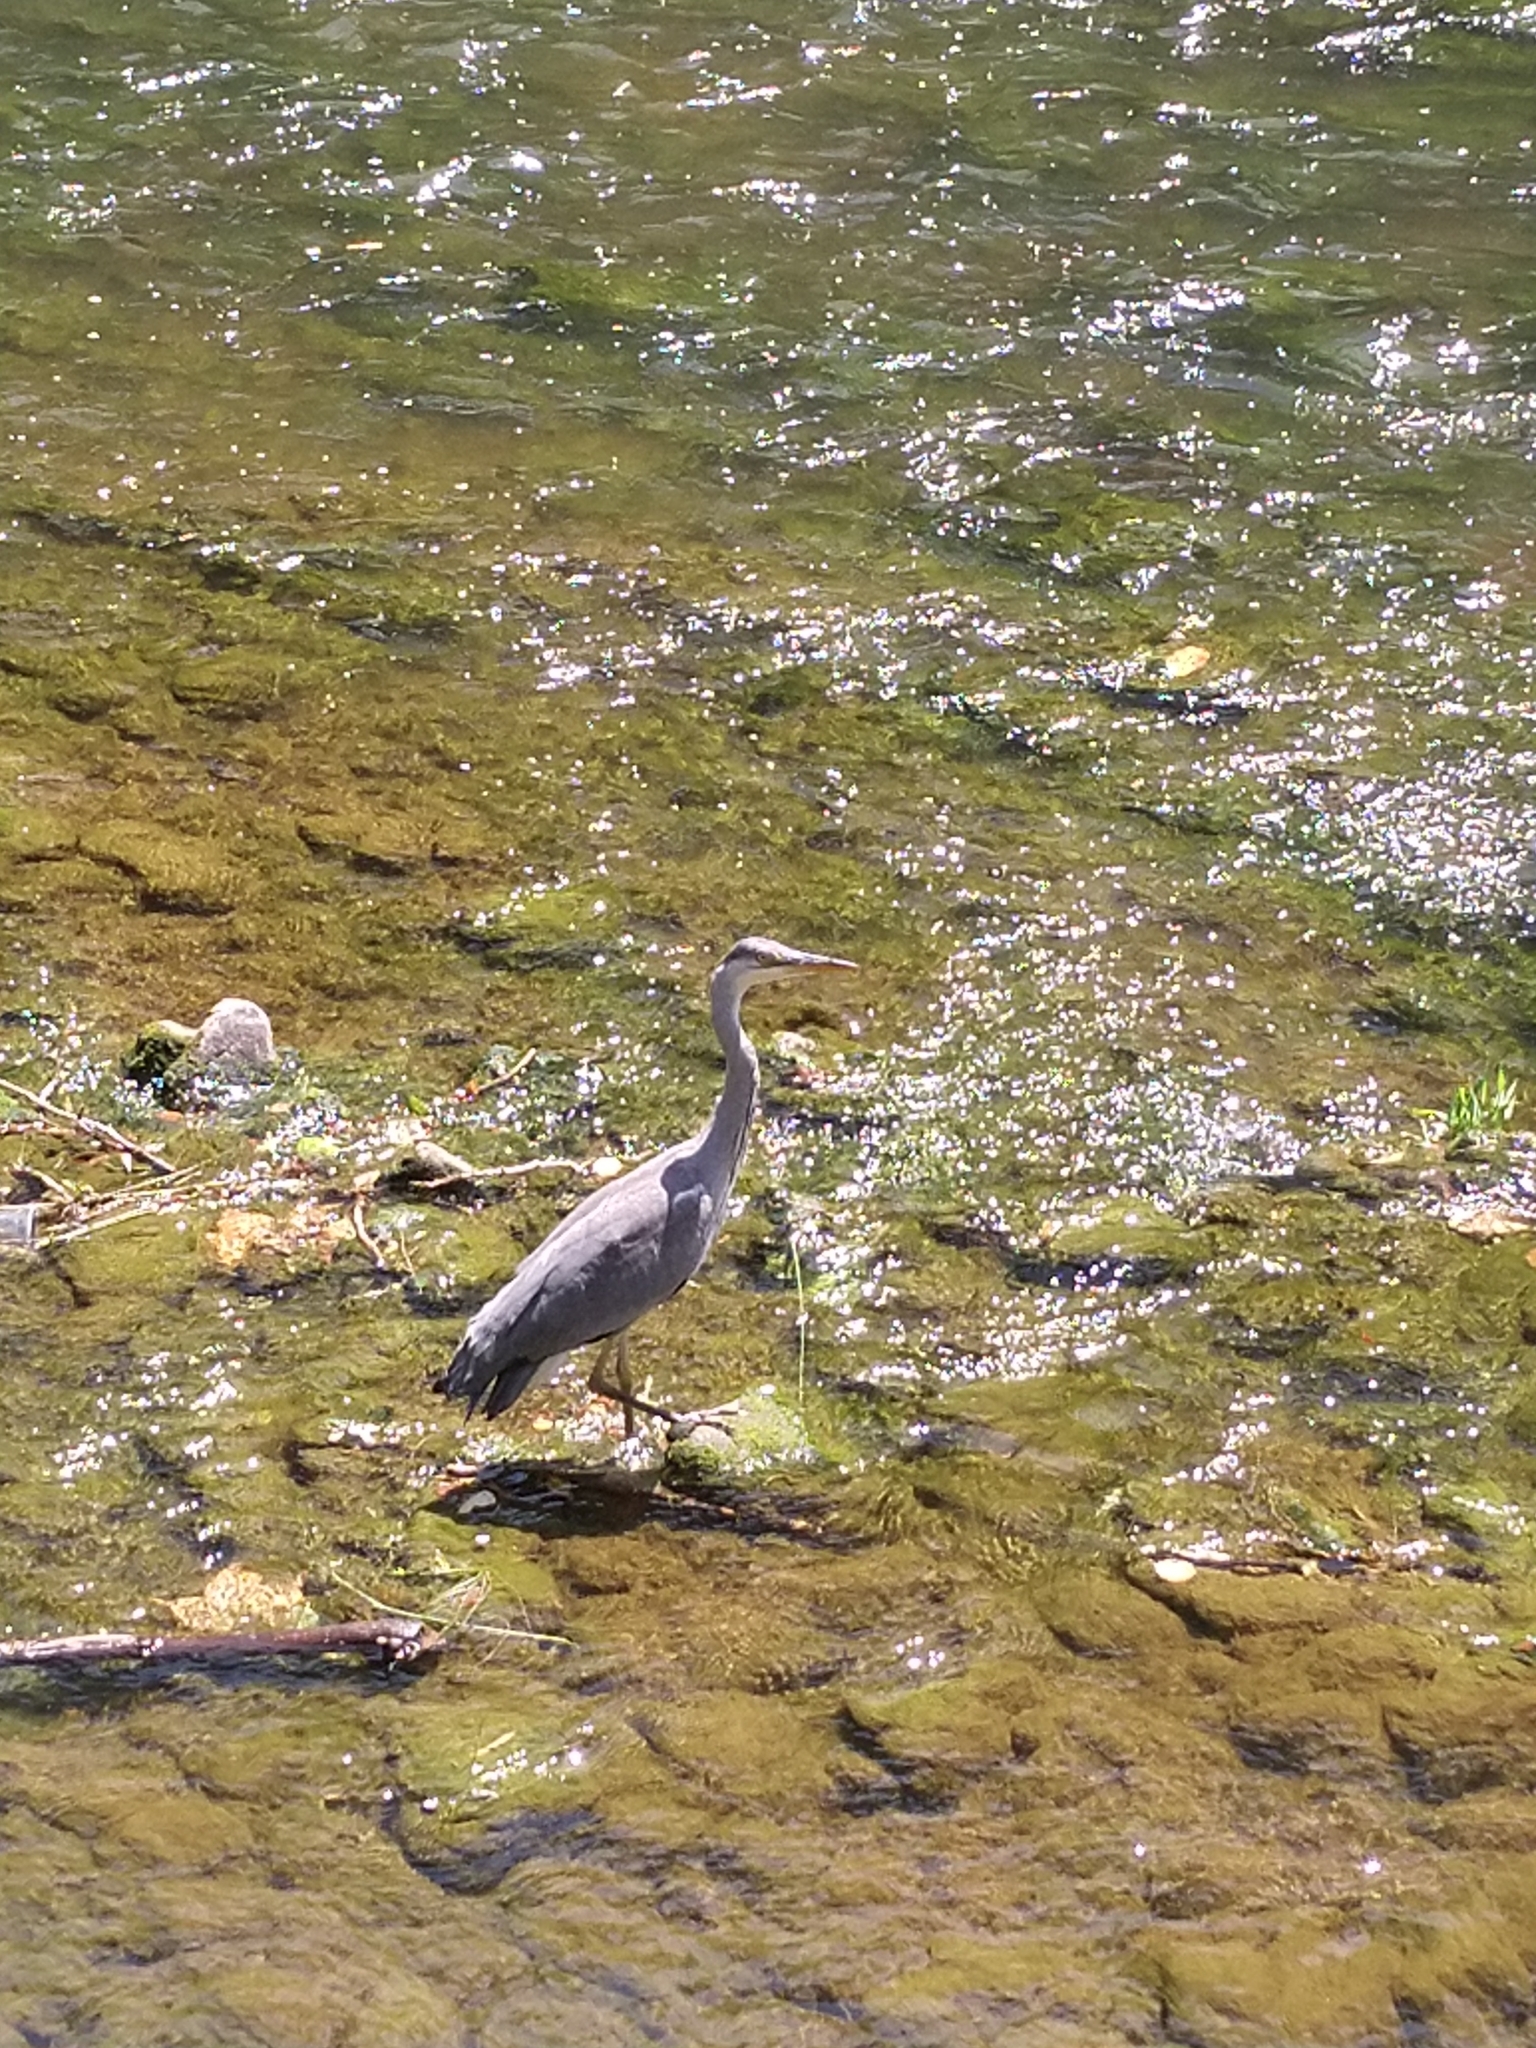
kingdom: Animalia
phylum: Chordata
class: Aves
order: Pelecaniformes
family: Ardeidae
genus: Ardea
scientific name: Ardea cinerea
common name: Grey heron
